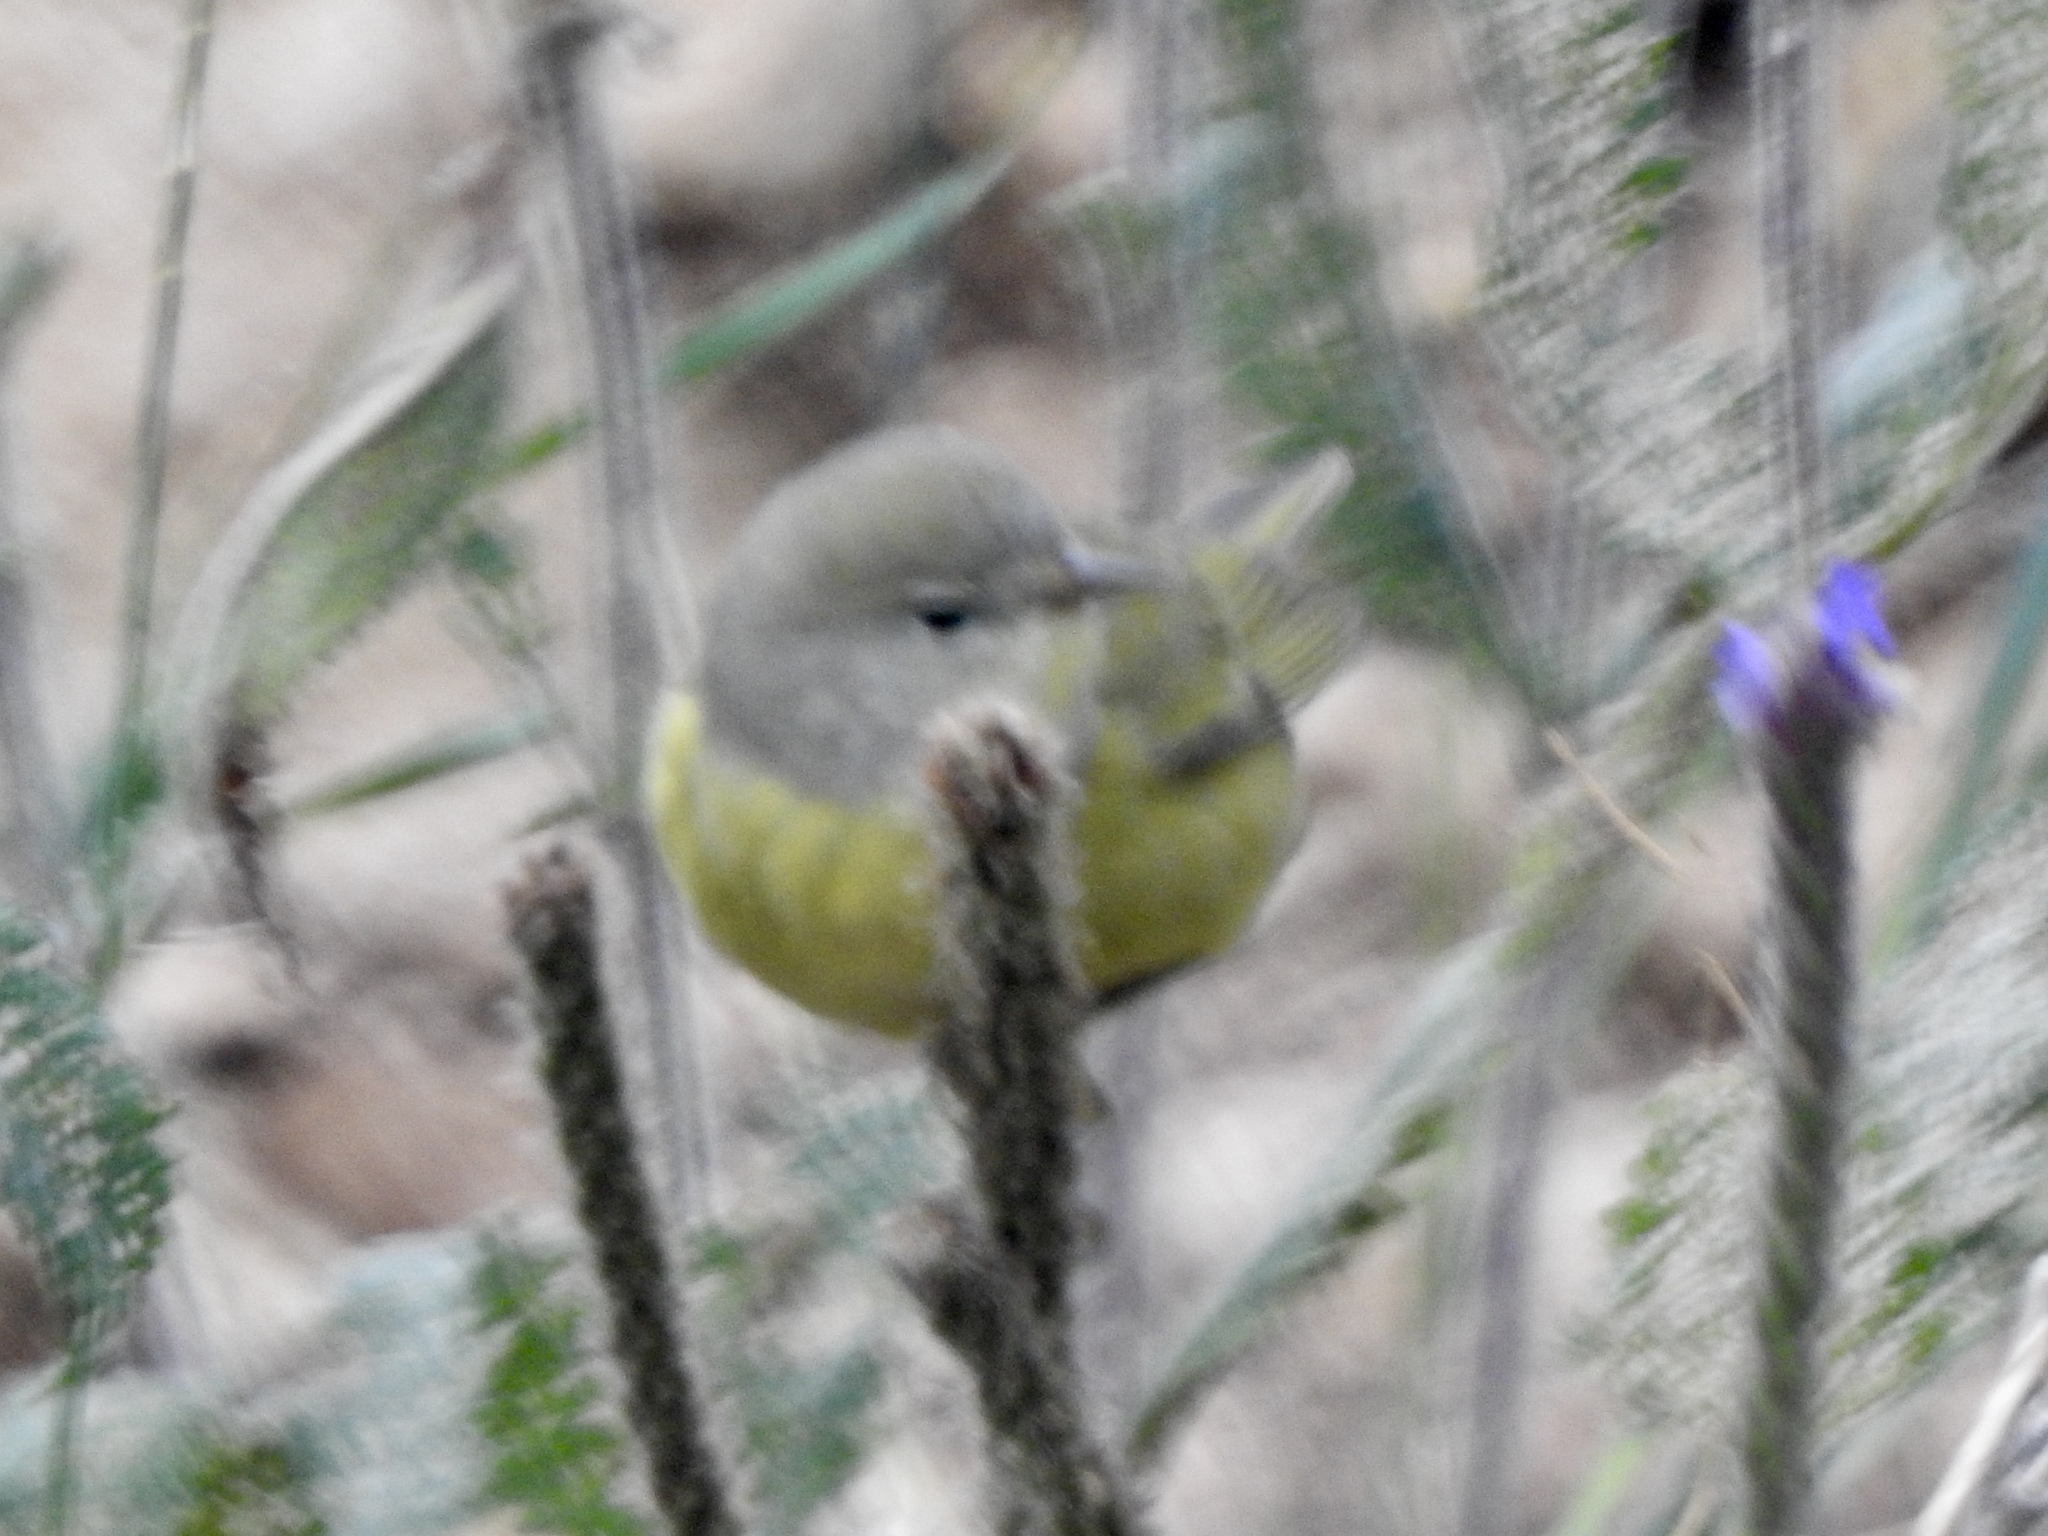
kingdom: Animalia
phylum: Chordata
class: Aves
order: Passeriformes
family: Parulidae
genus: Leiothlypis
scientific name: Leiothlypis celata
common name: Orange-crowned warbler
